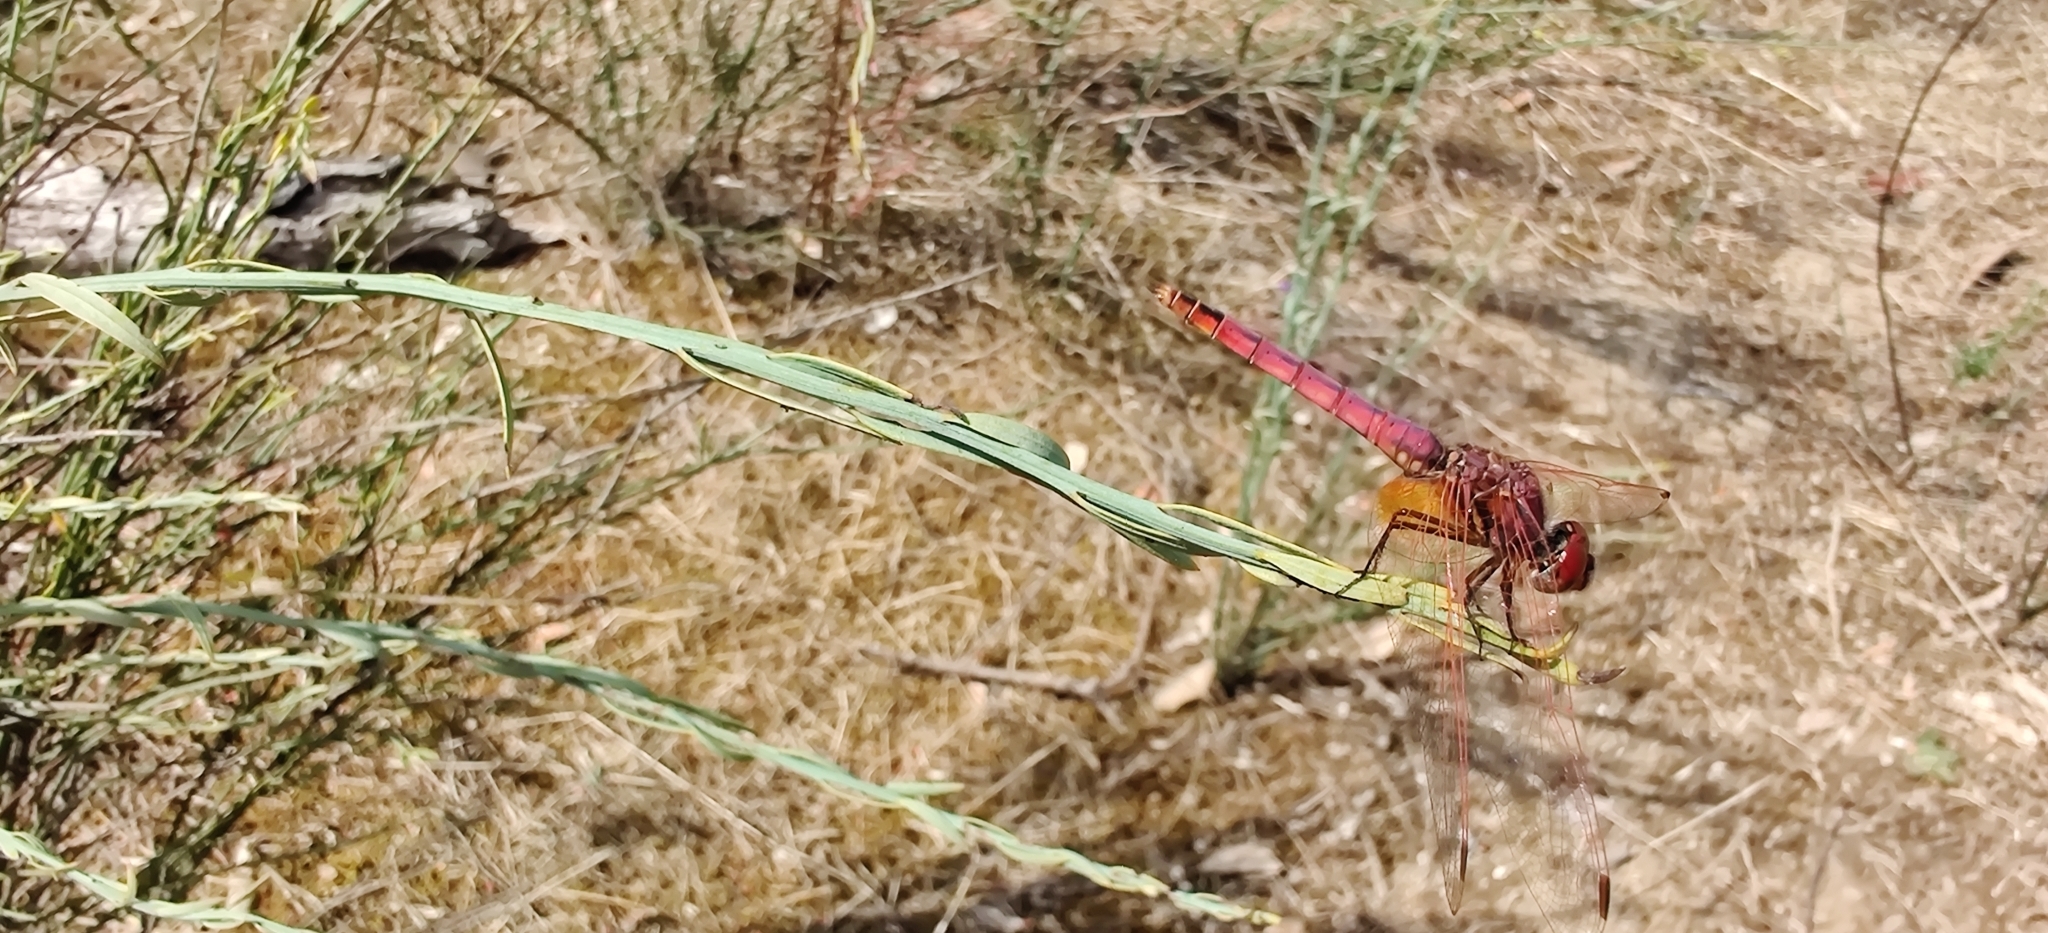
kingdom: Animalia
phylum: Arthropoda
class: Insecta
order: Odonata
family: Libellulidae
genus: Trithemis
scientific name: Trithemis annulata
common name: Violet dropwing
